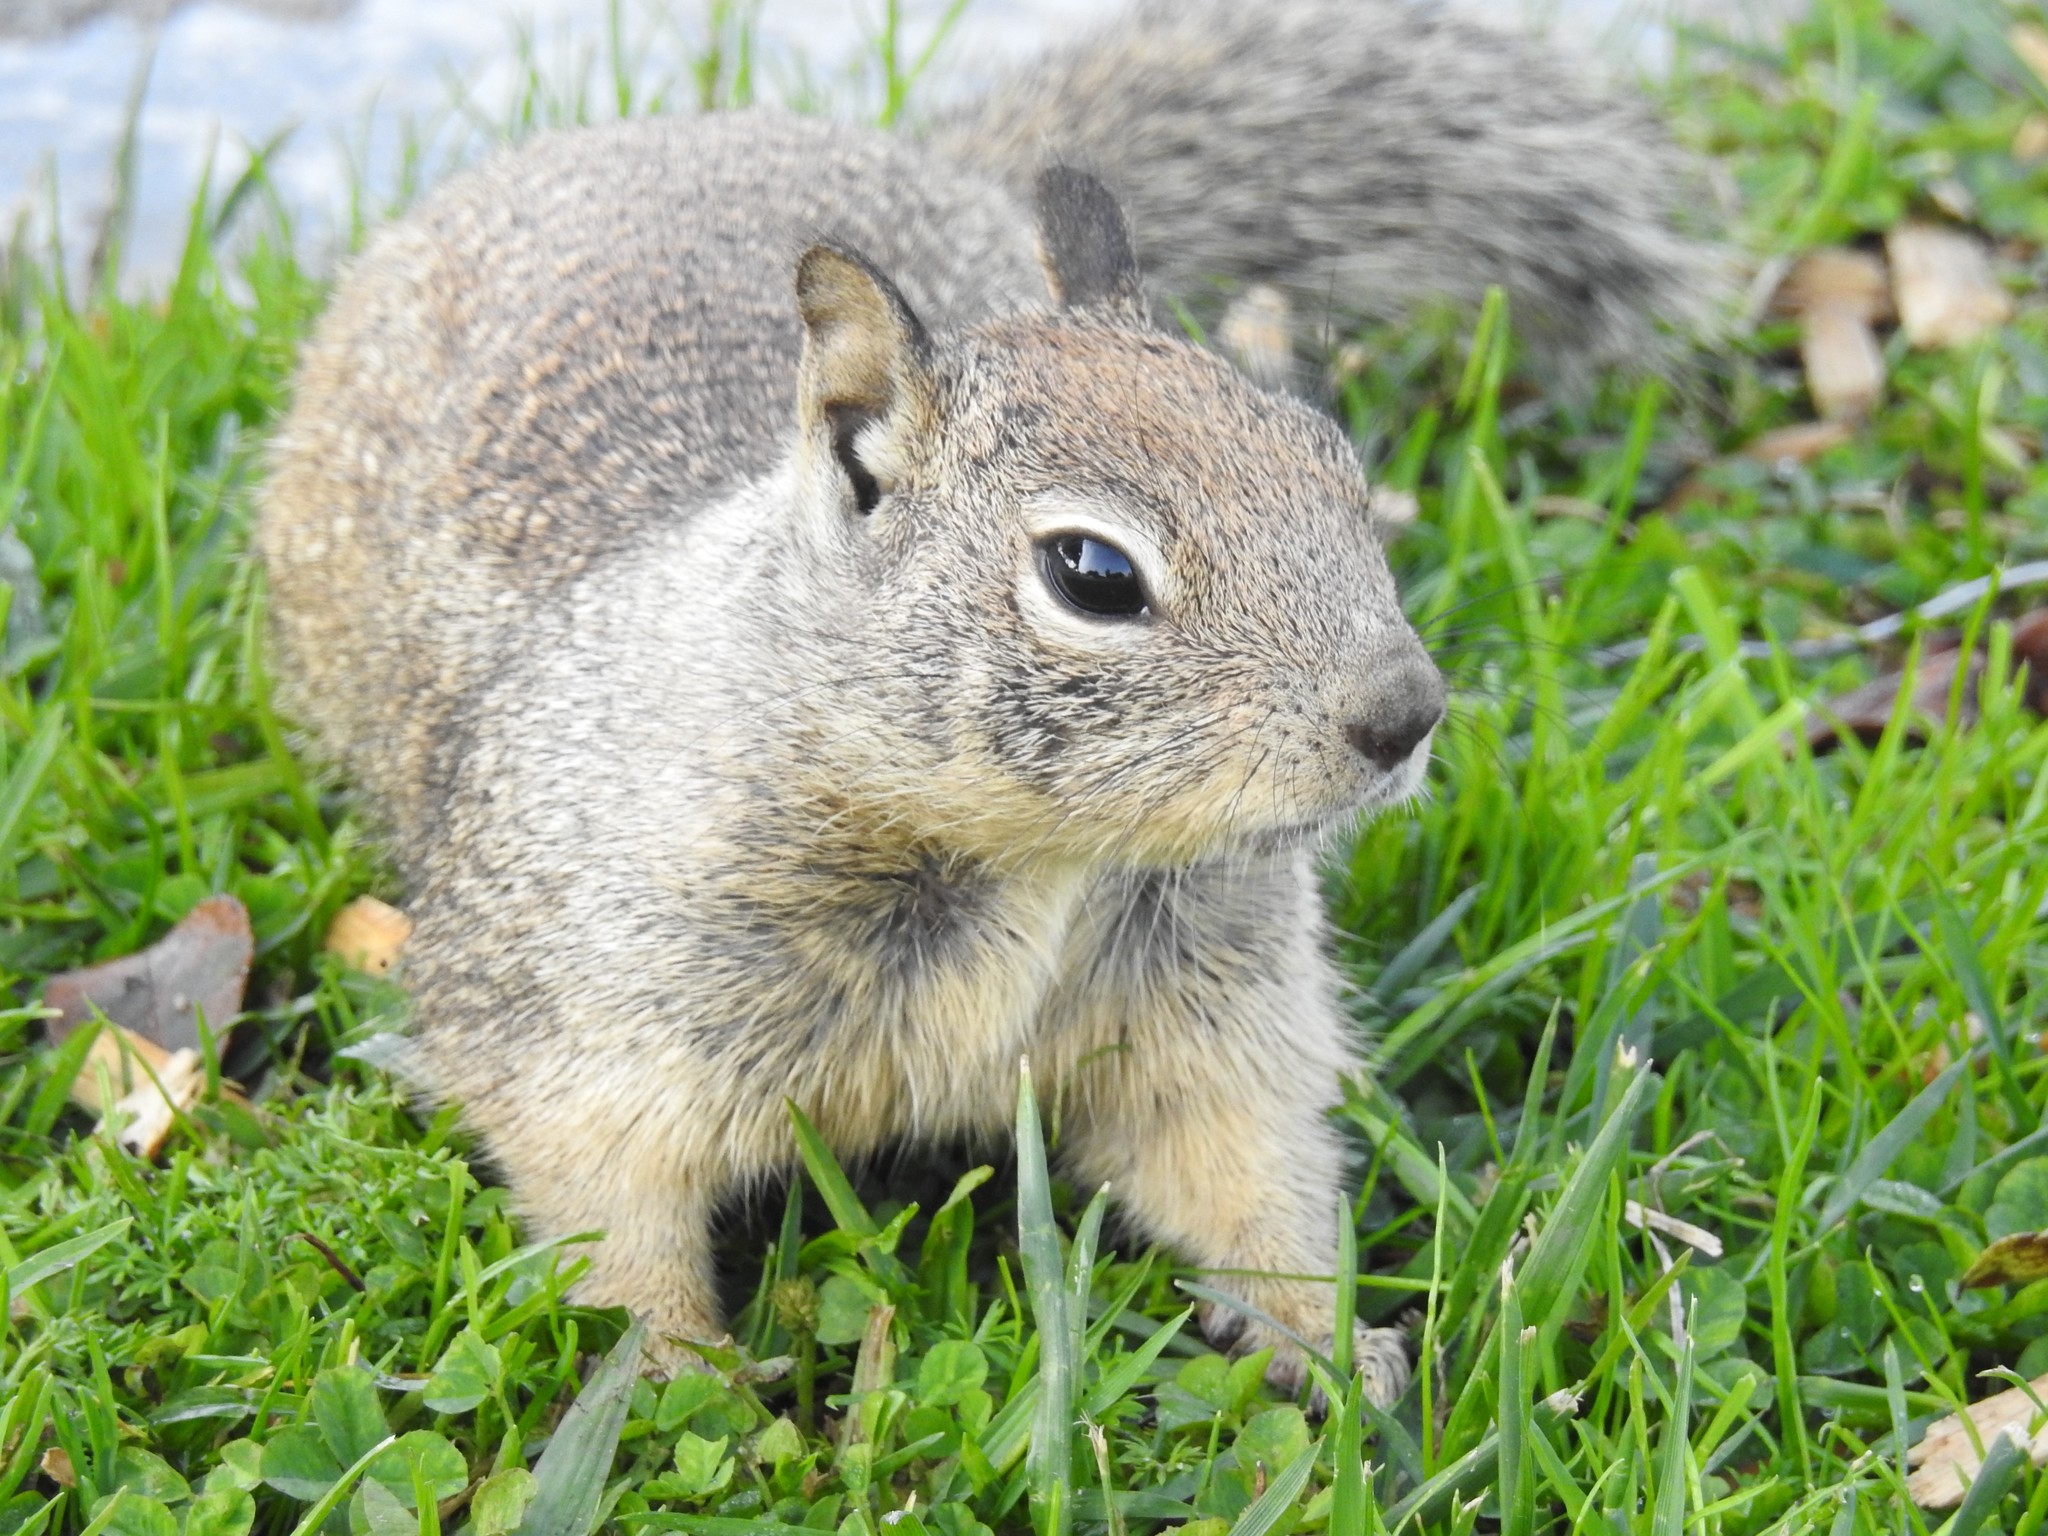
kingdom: Animalia
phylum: Chordata
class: Mammalia
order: Rodentia
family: Sciuridae
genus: Otospermophilus
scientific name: Otospermophilus beecheyi
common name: California ground squirrel
